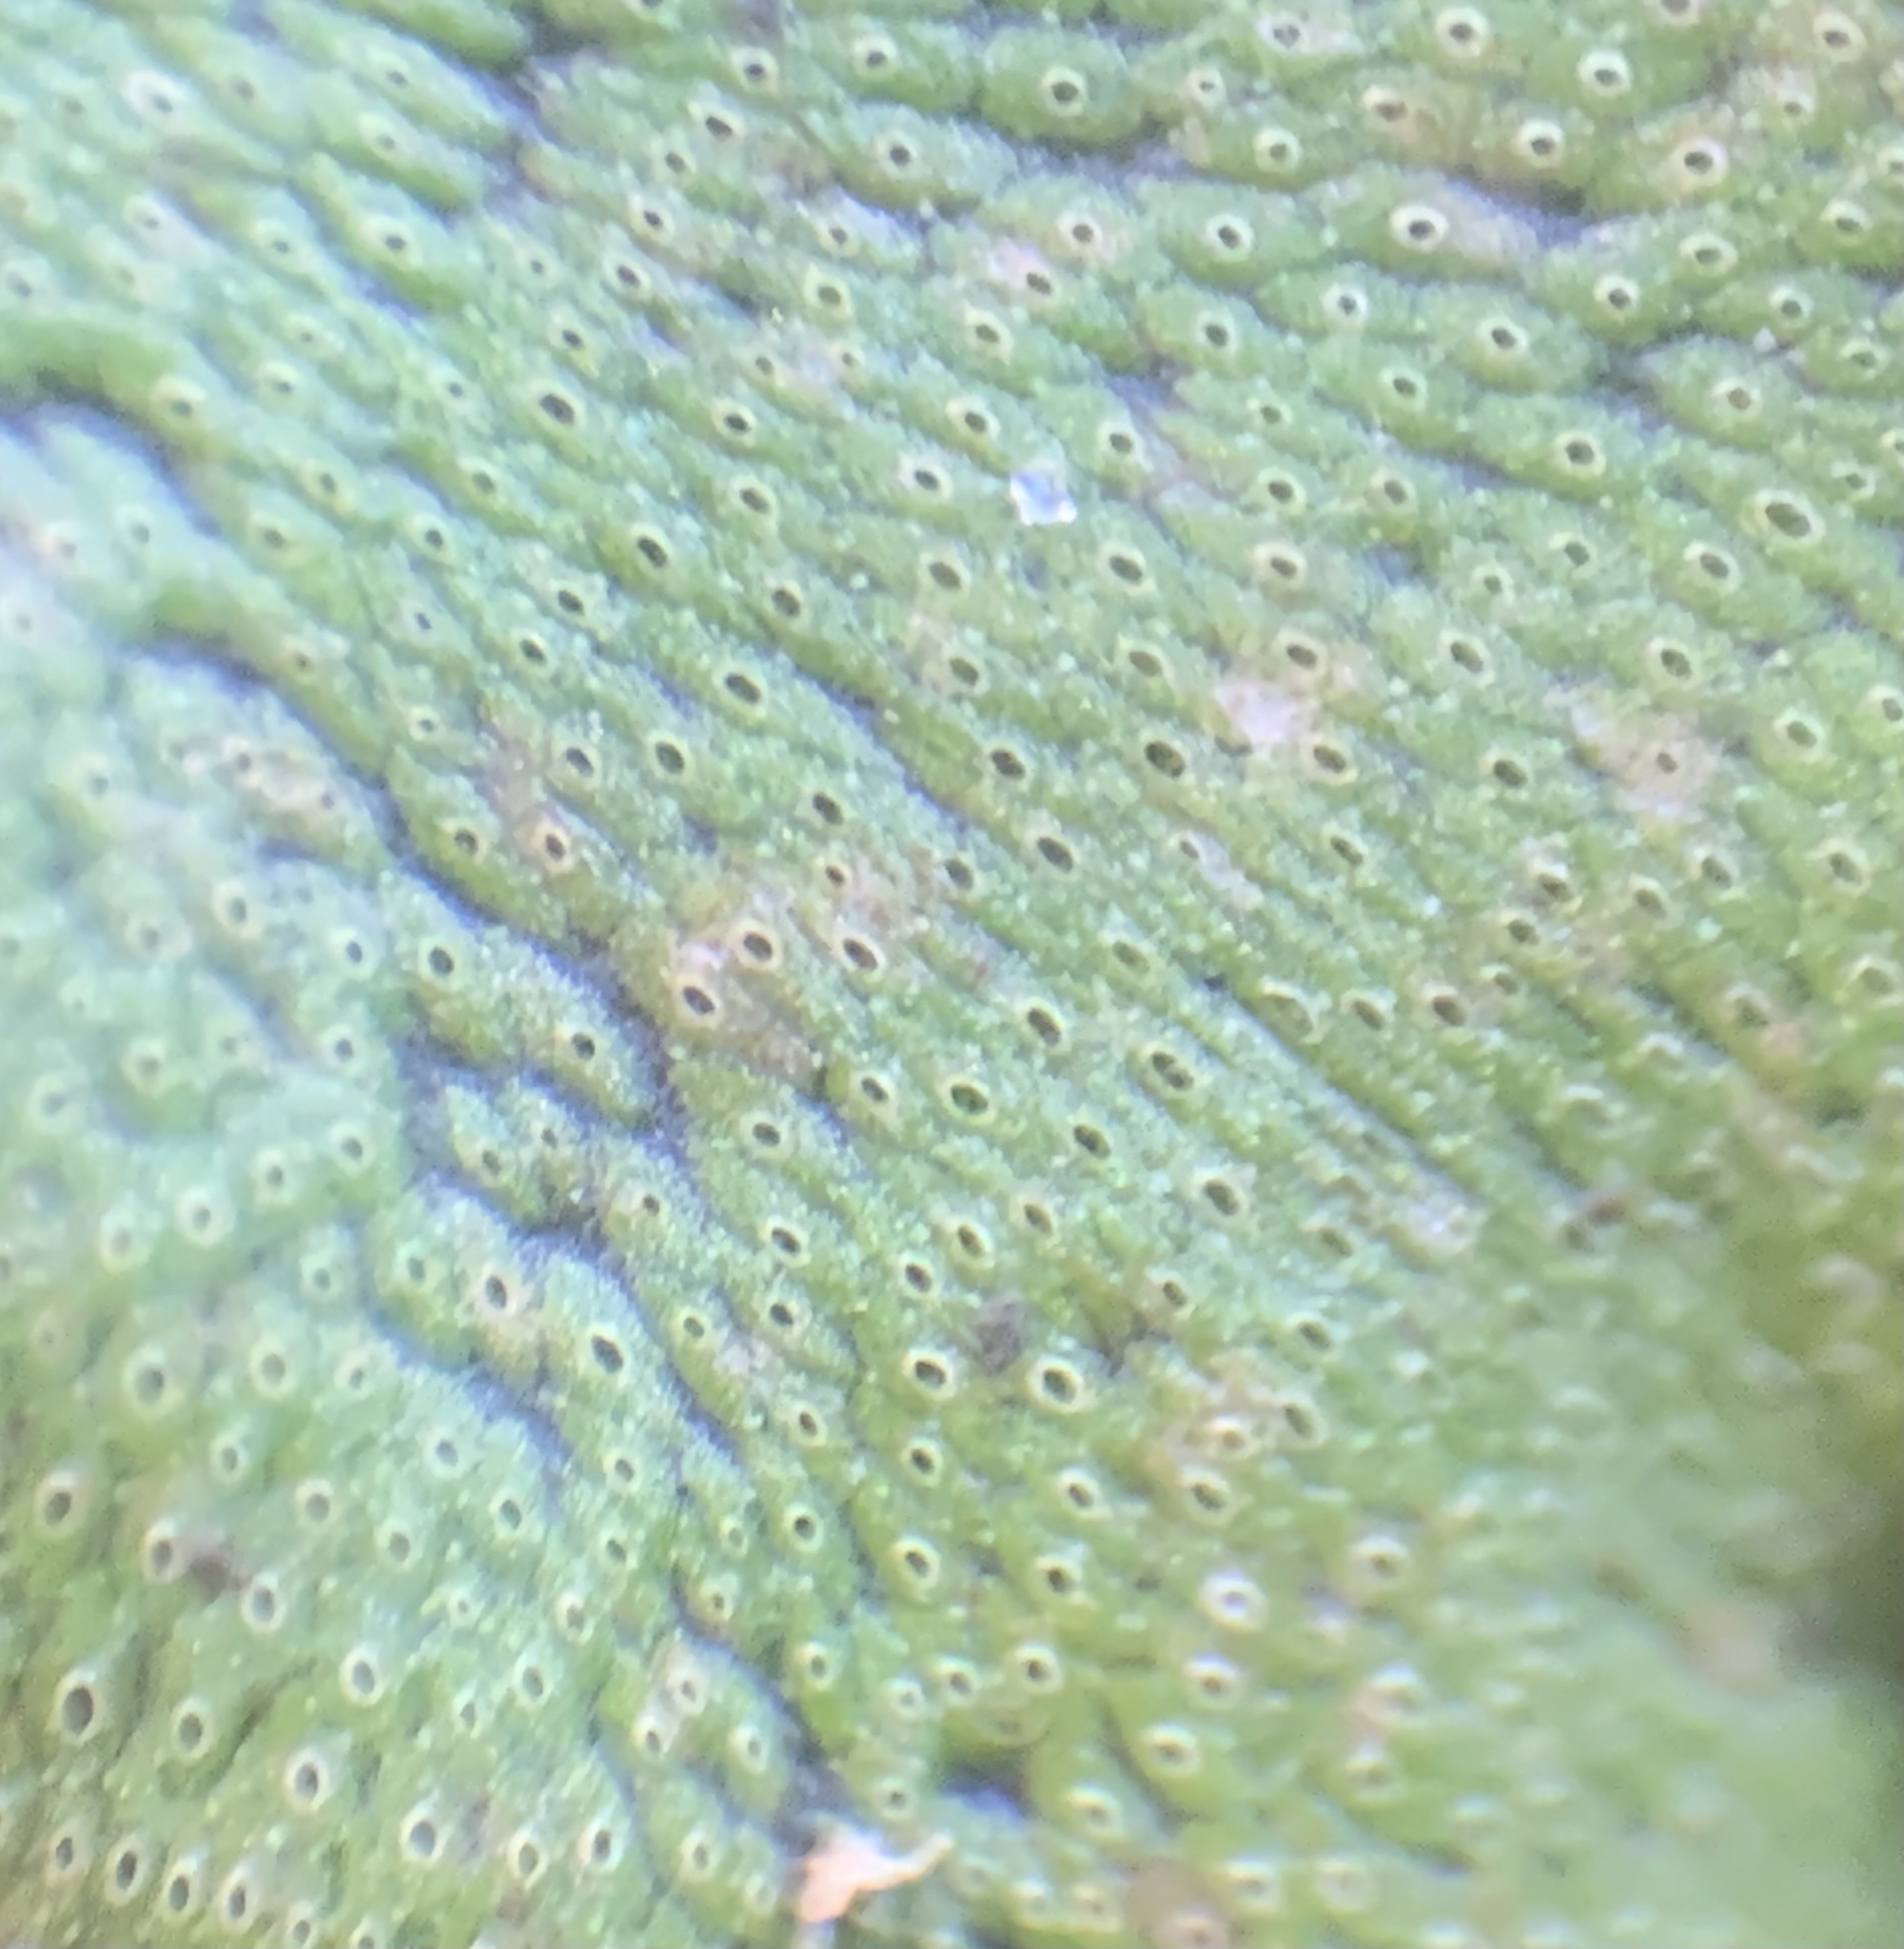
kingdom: Plantae
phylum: Marchantiophyta
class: Marchantiopsida
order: Marchantiales
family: Marchantiaceae
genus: Marchantia
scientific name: Marchantia polymorpha
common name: Common liverwort
